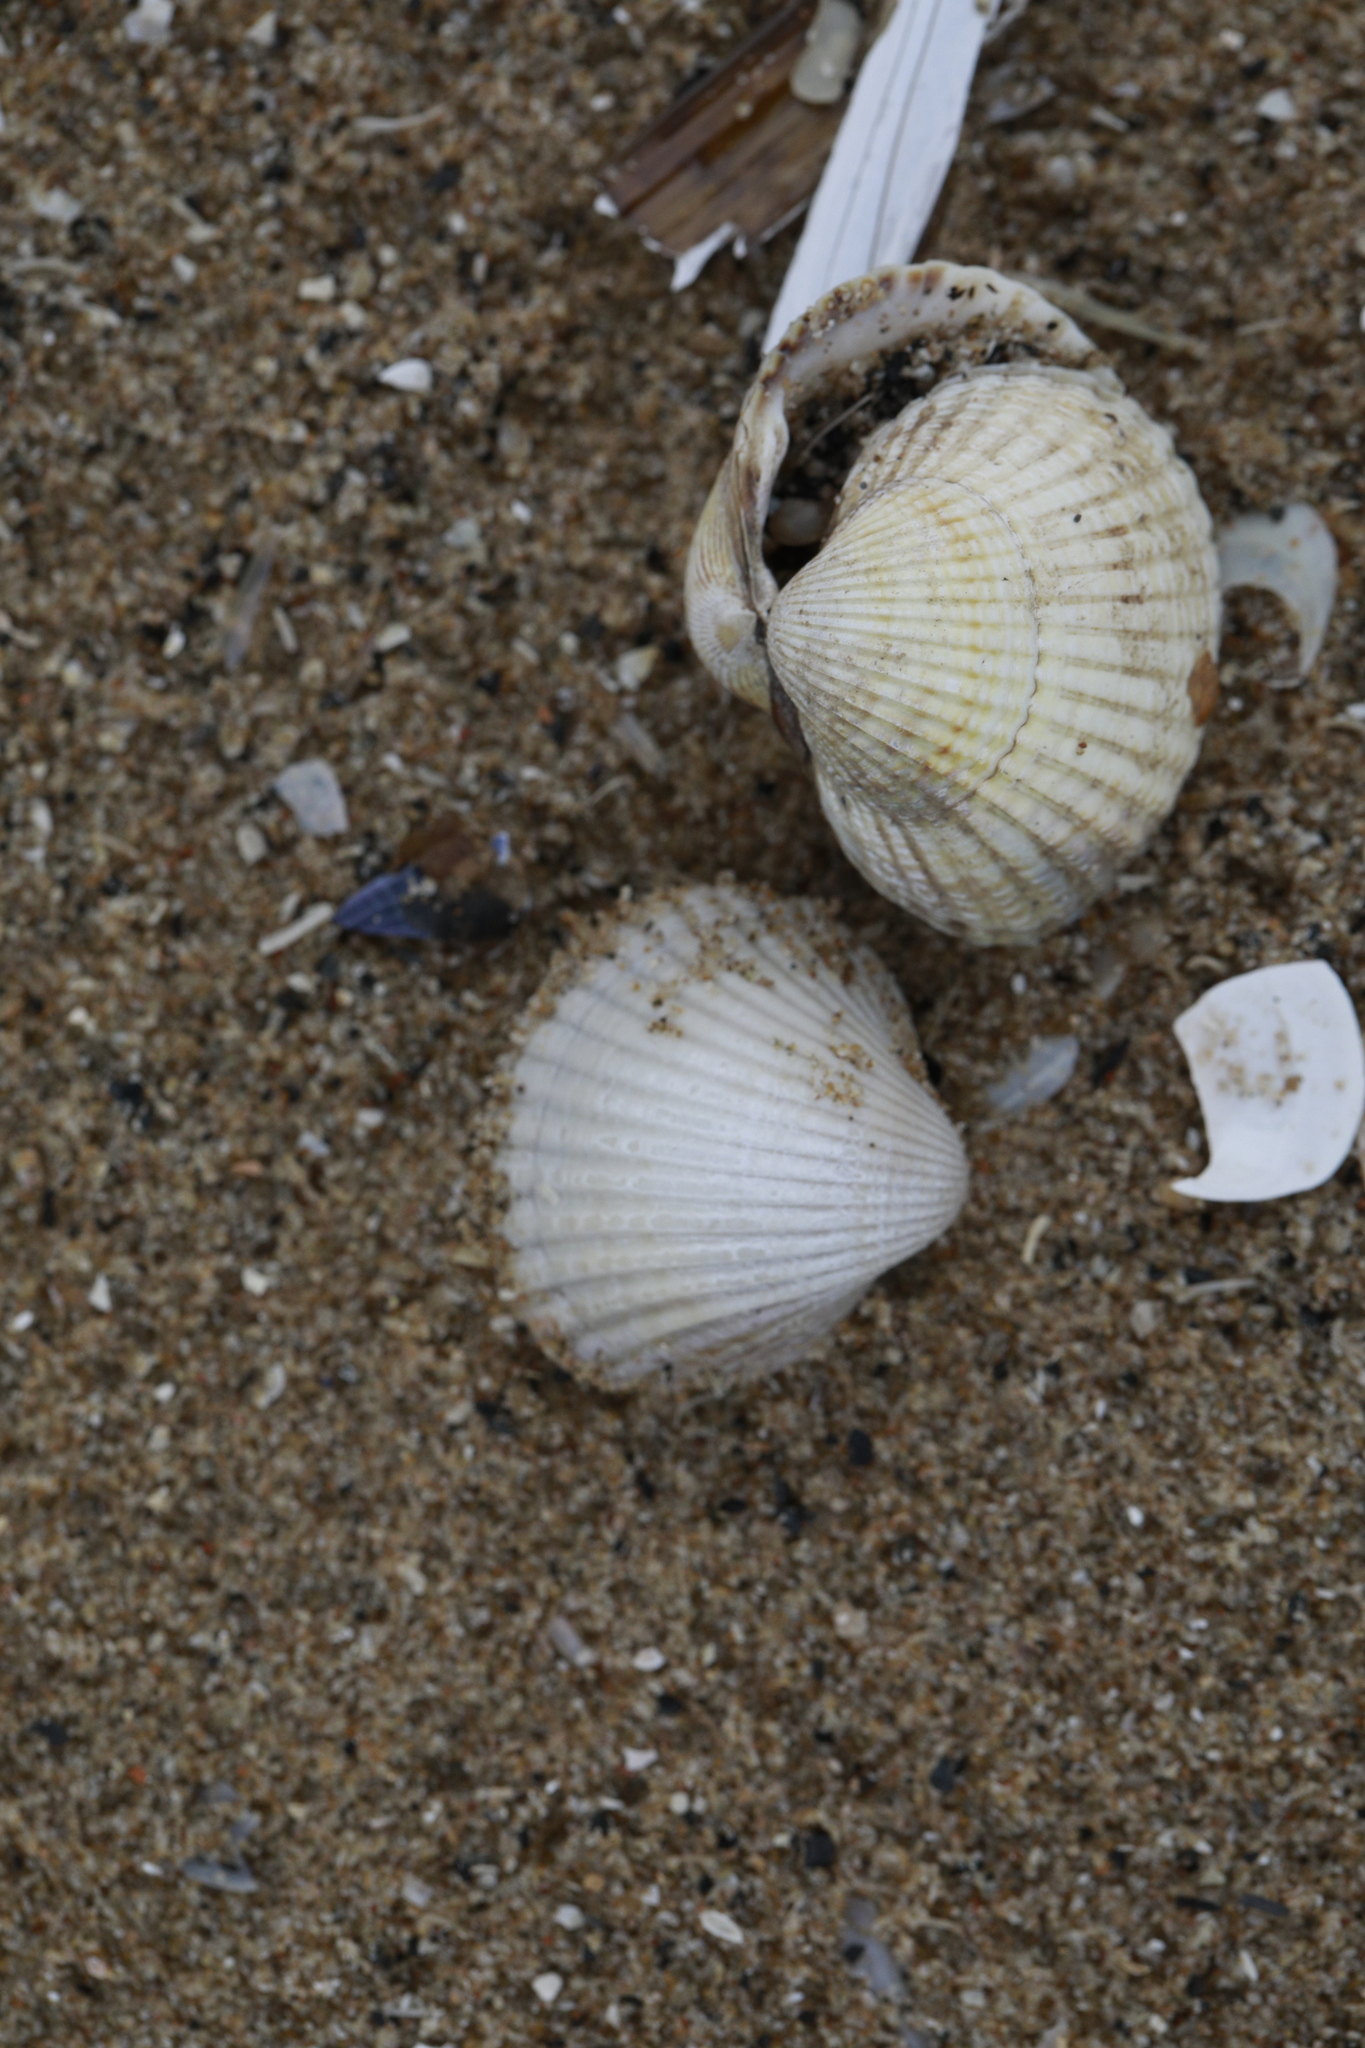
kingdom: Animalia
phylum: Mollusca
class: Bivalvia
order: Cardiida
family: Cardiidae
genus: Cerastoderma
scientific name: Cerastoderma edule
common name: Common cockle
